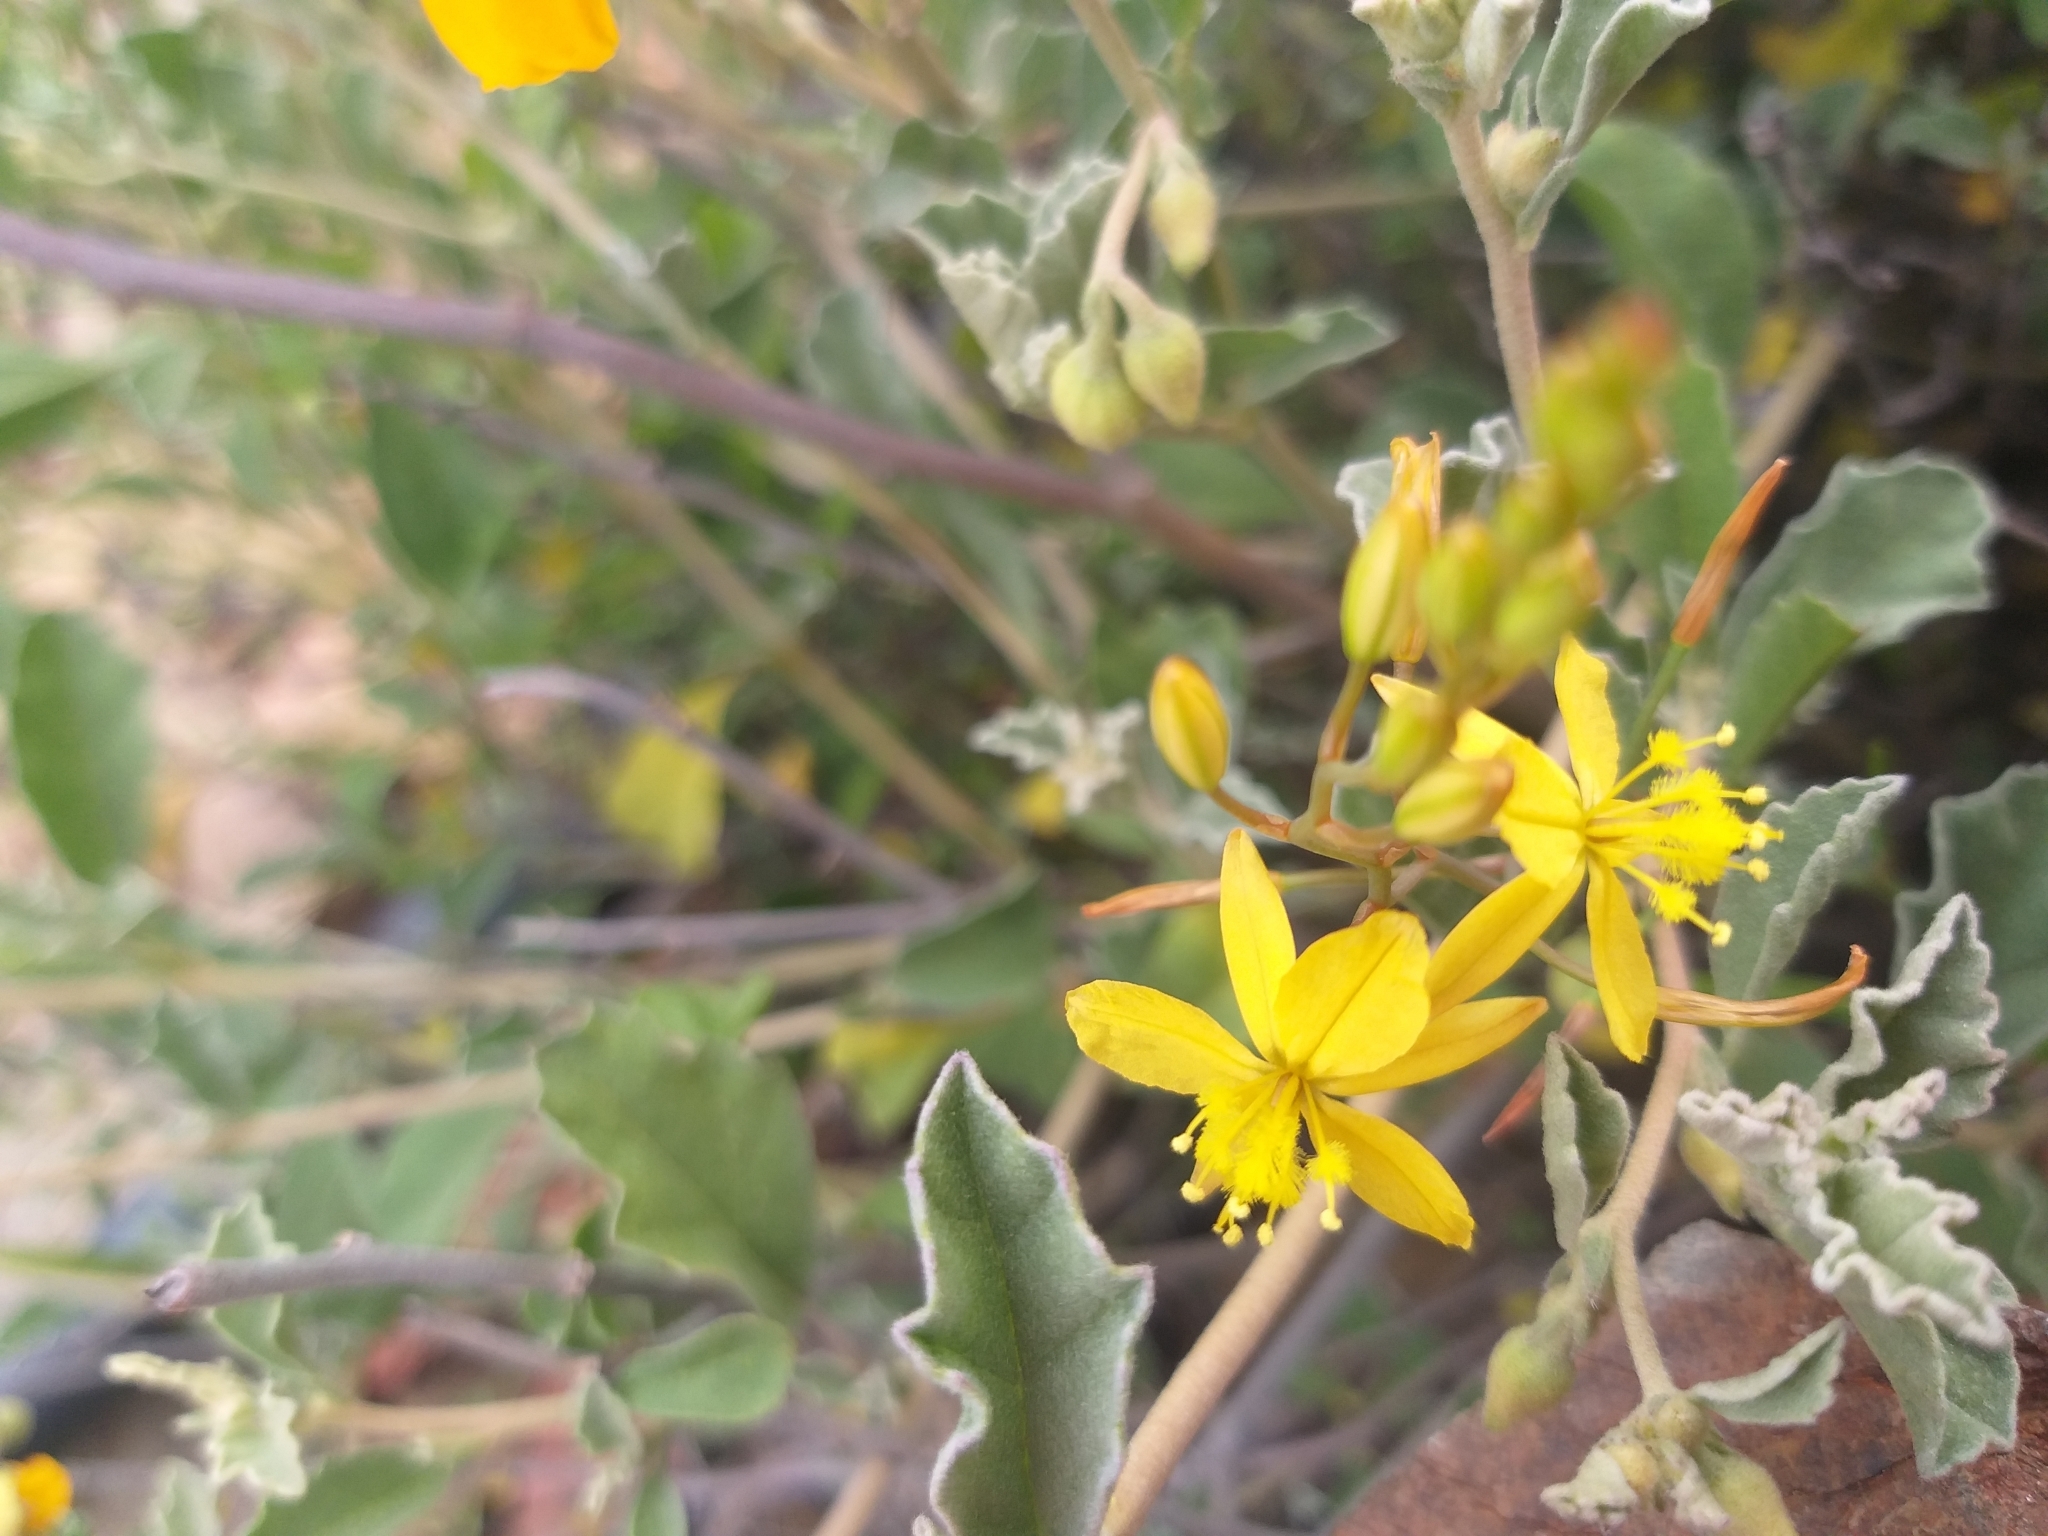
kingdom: Plantae
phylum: Tracheophyta
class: Liliopsida
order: Asparagales
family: Asphodelaceae
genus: Bulbine
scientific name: Bulbine
